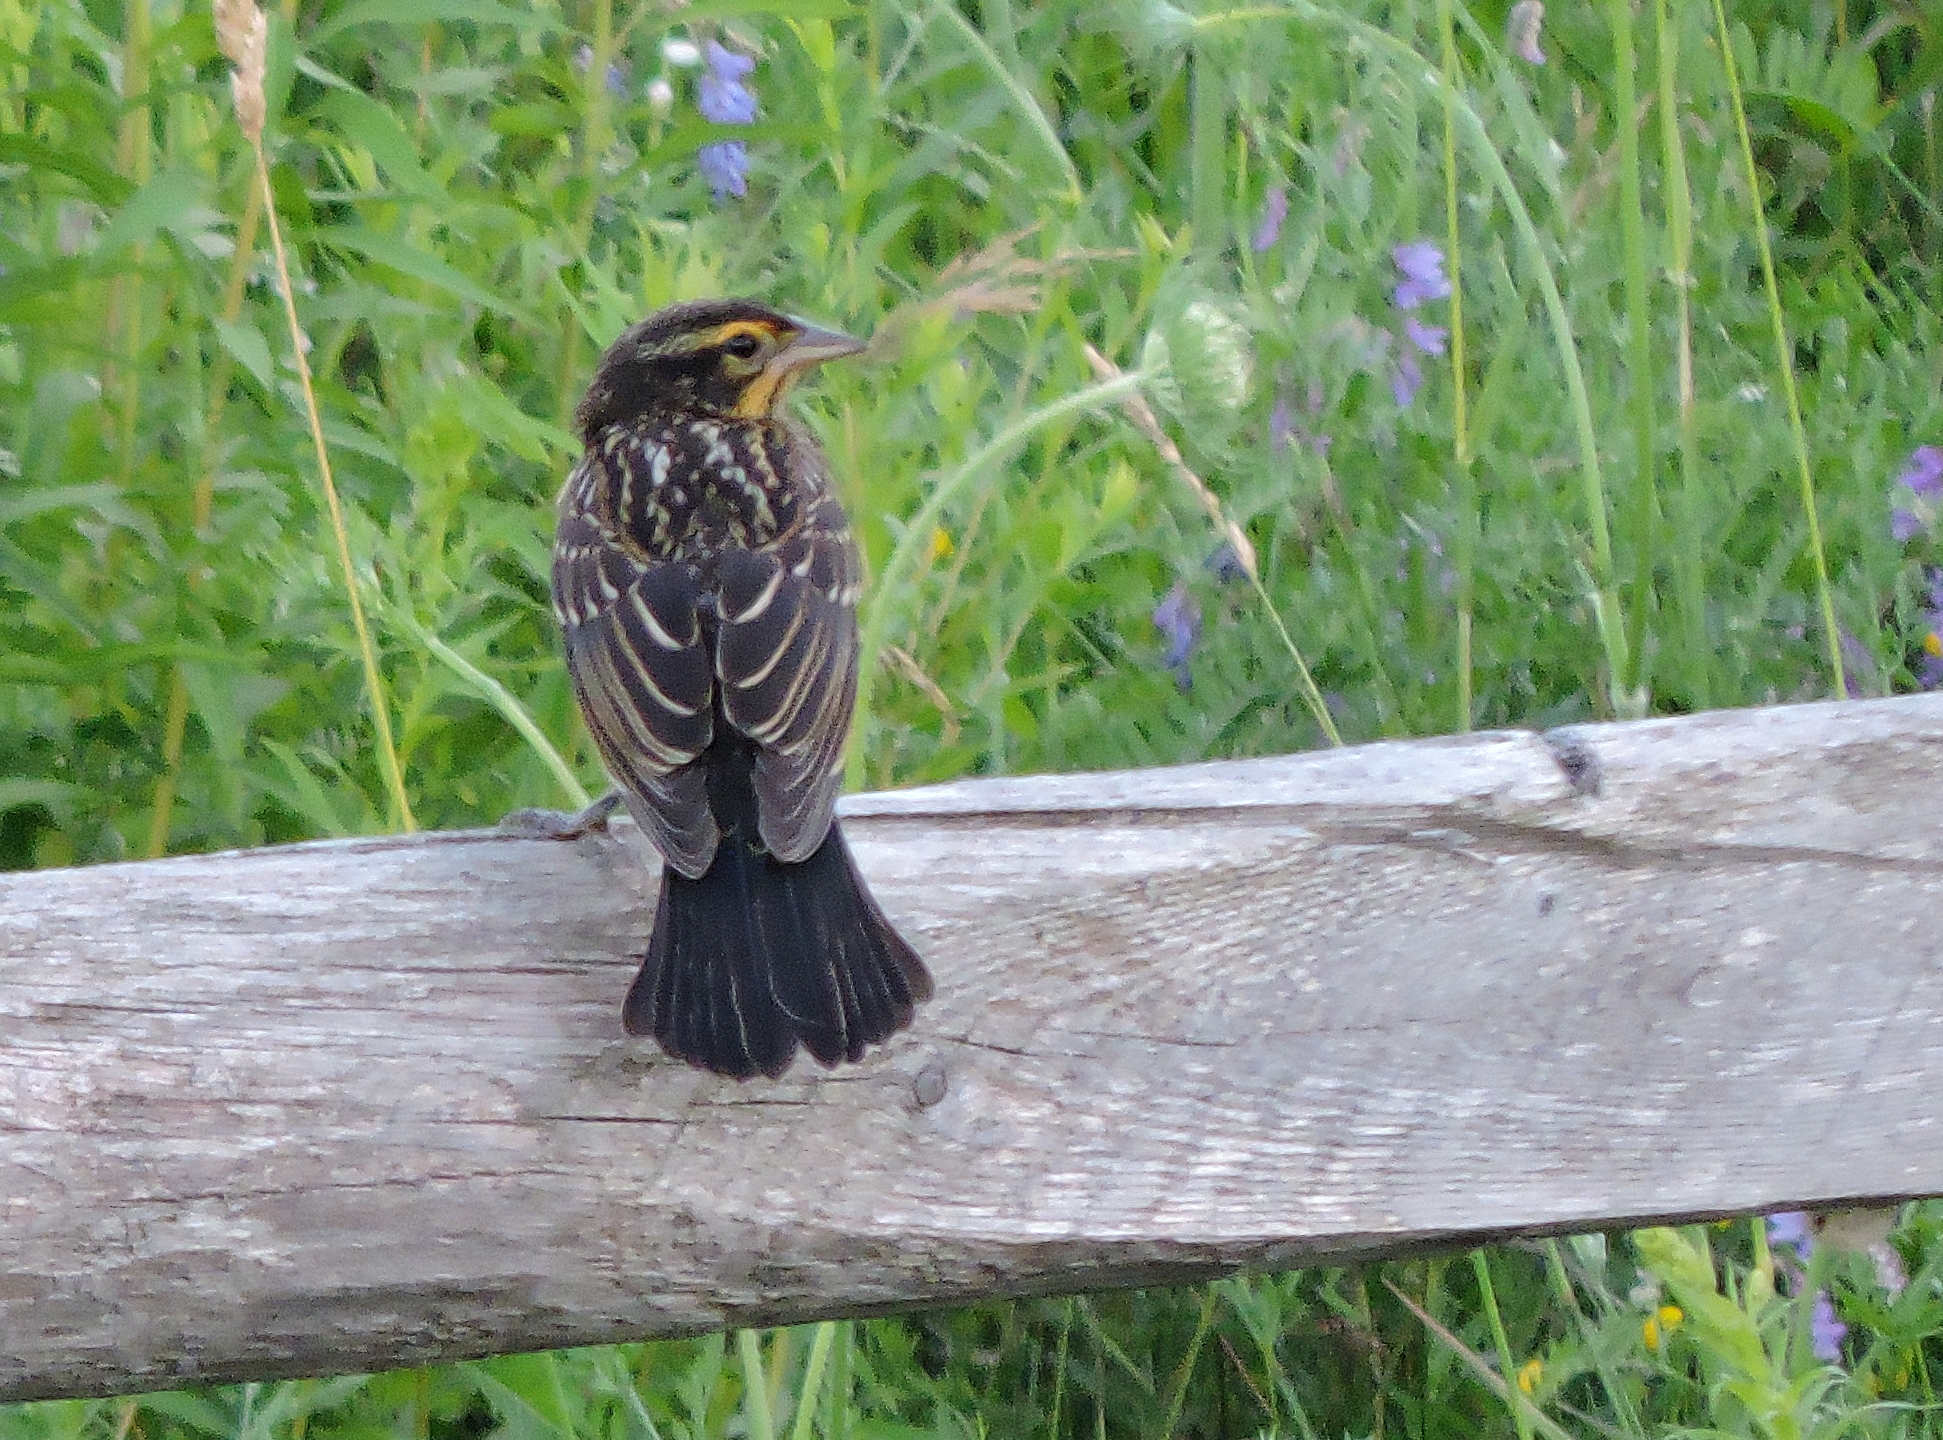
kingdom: Animalia
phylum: Chordata
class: Aves
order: Passeriformes
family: Icteridae
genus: Agelaius
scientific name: Agelaius phoeniceus
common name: Red-winged blackbird
